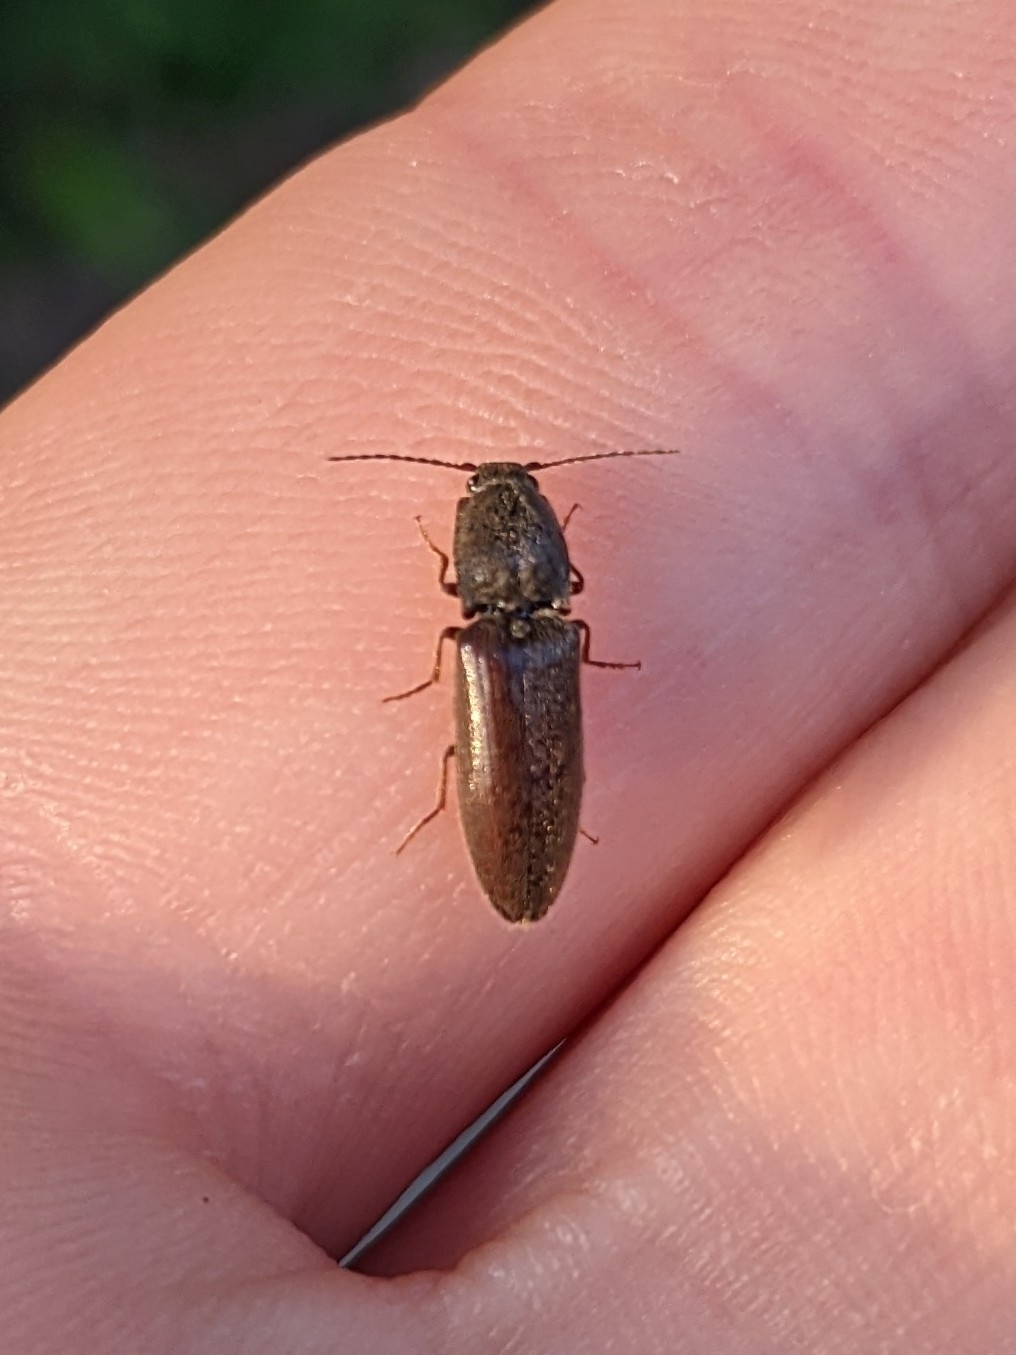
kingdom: Animalia
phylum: Arthropoda
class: Insecta
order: Coleoptera
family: Elateridae
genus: Athous
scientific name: Athous haemorrhoidalis
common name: Red-brown click beetle
